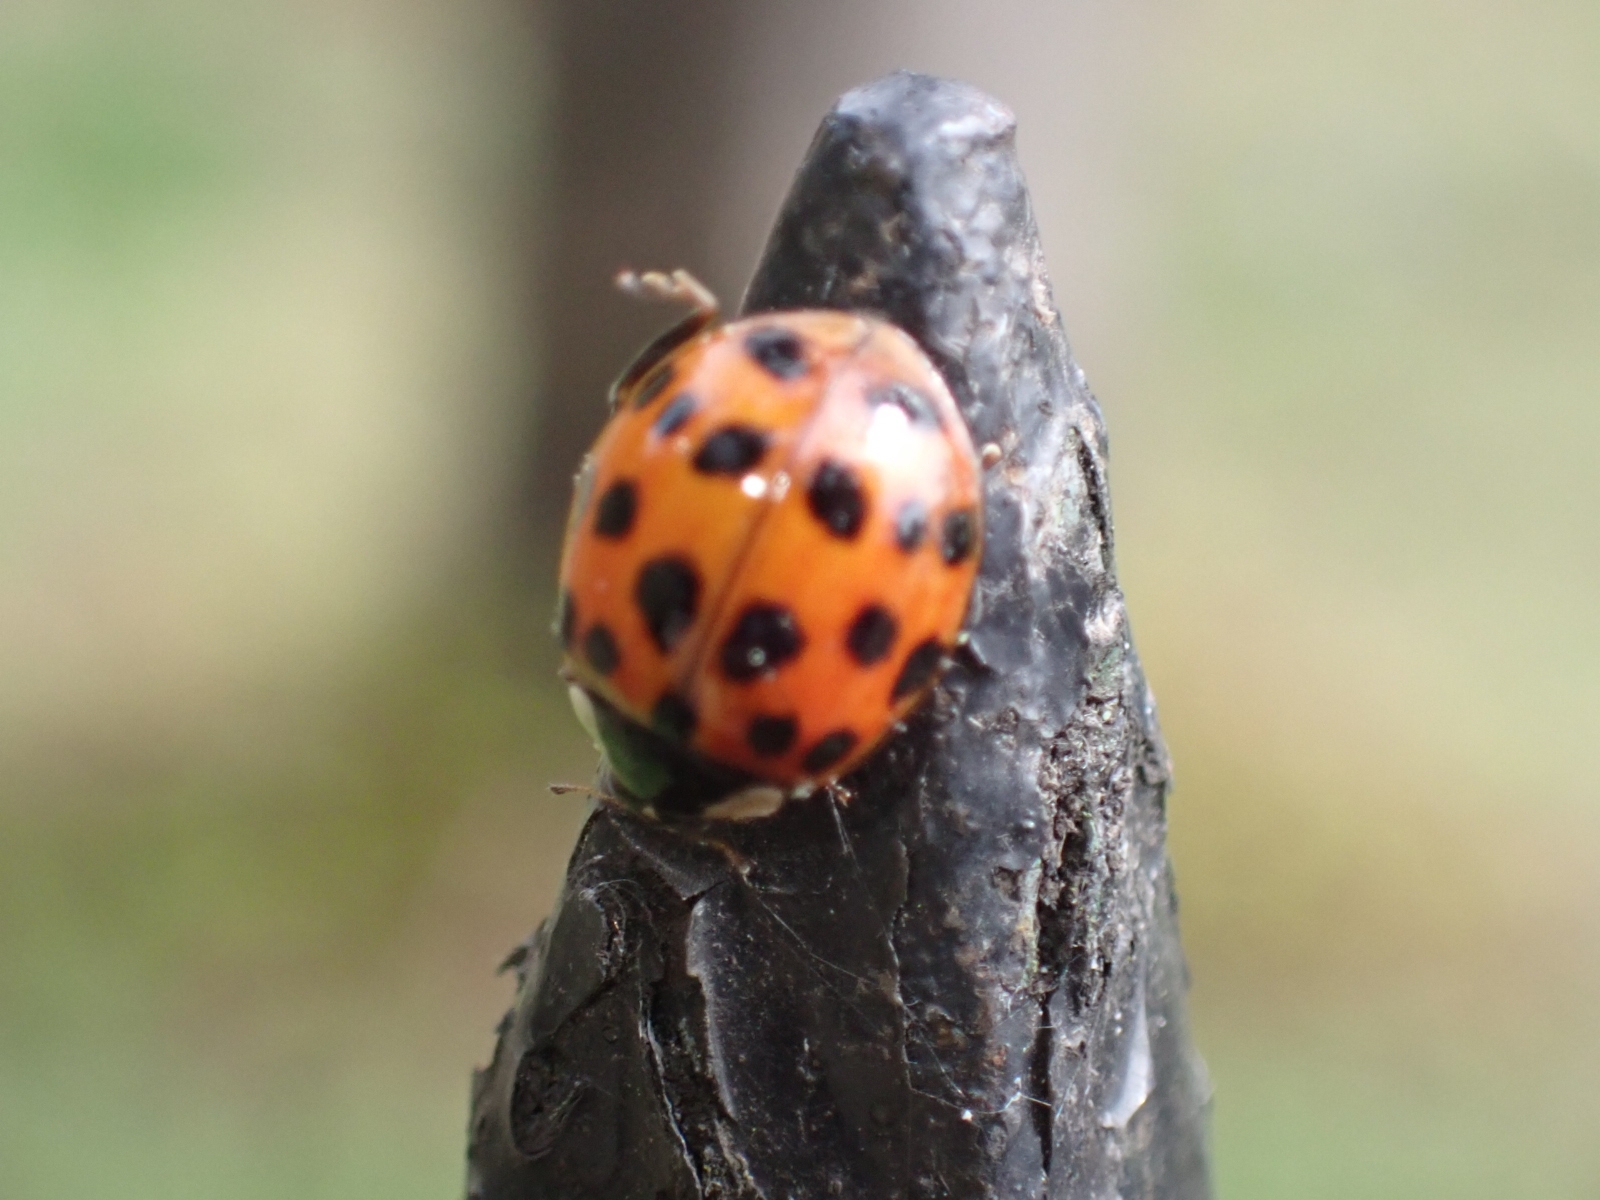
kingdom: Animalia
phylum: Arthropoda
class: Insecta
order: Coleoptera
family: Coccinellidae
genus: Harmonia
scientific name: Harmonia axyridis
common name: Harlequin ladybird
